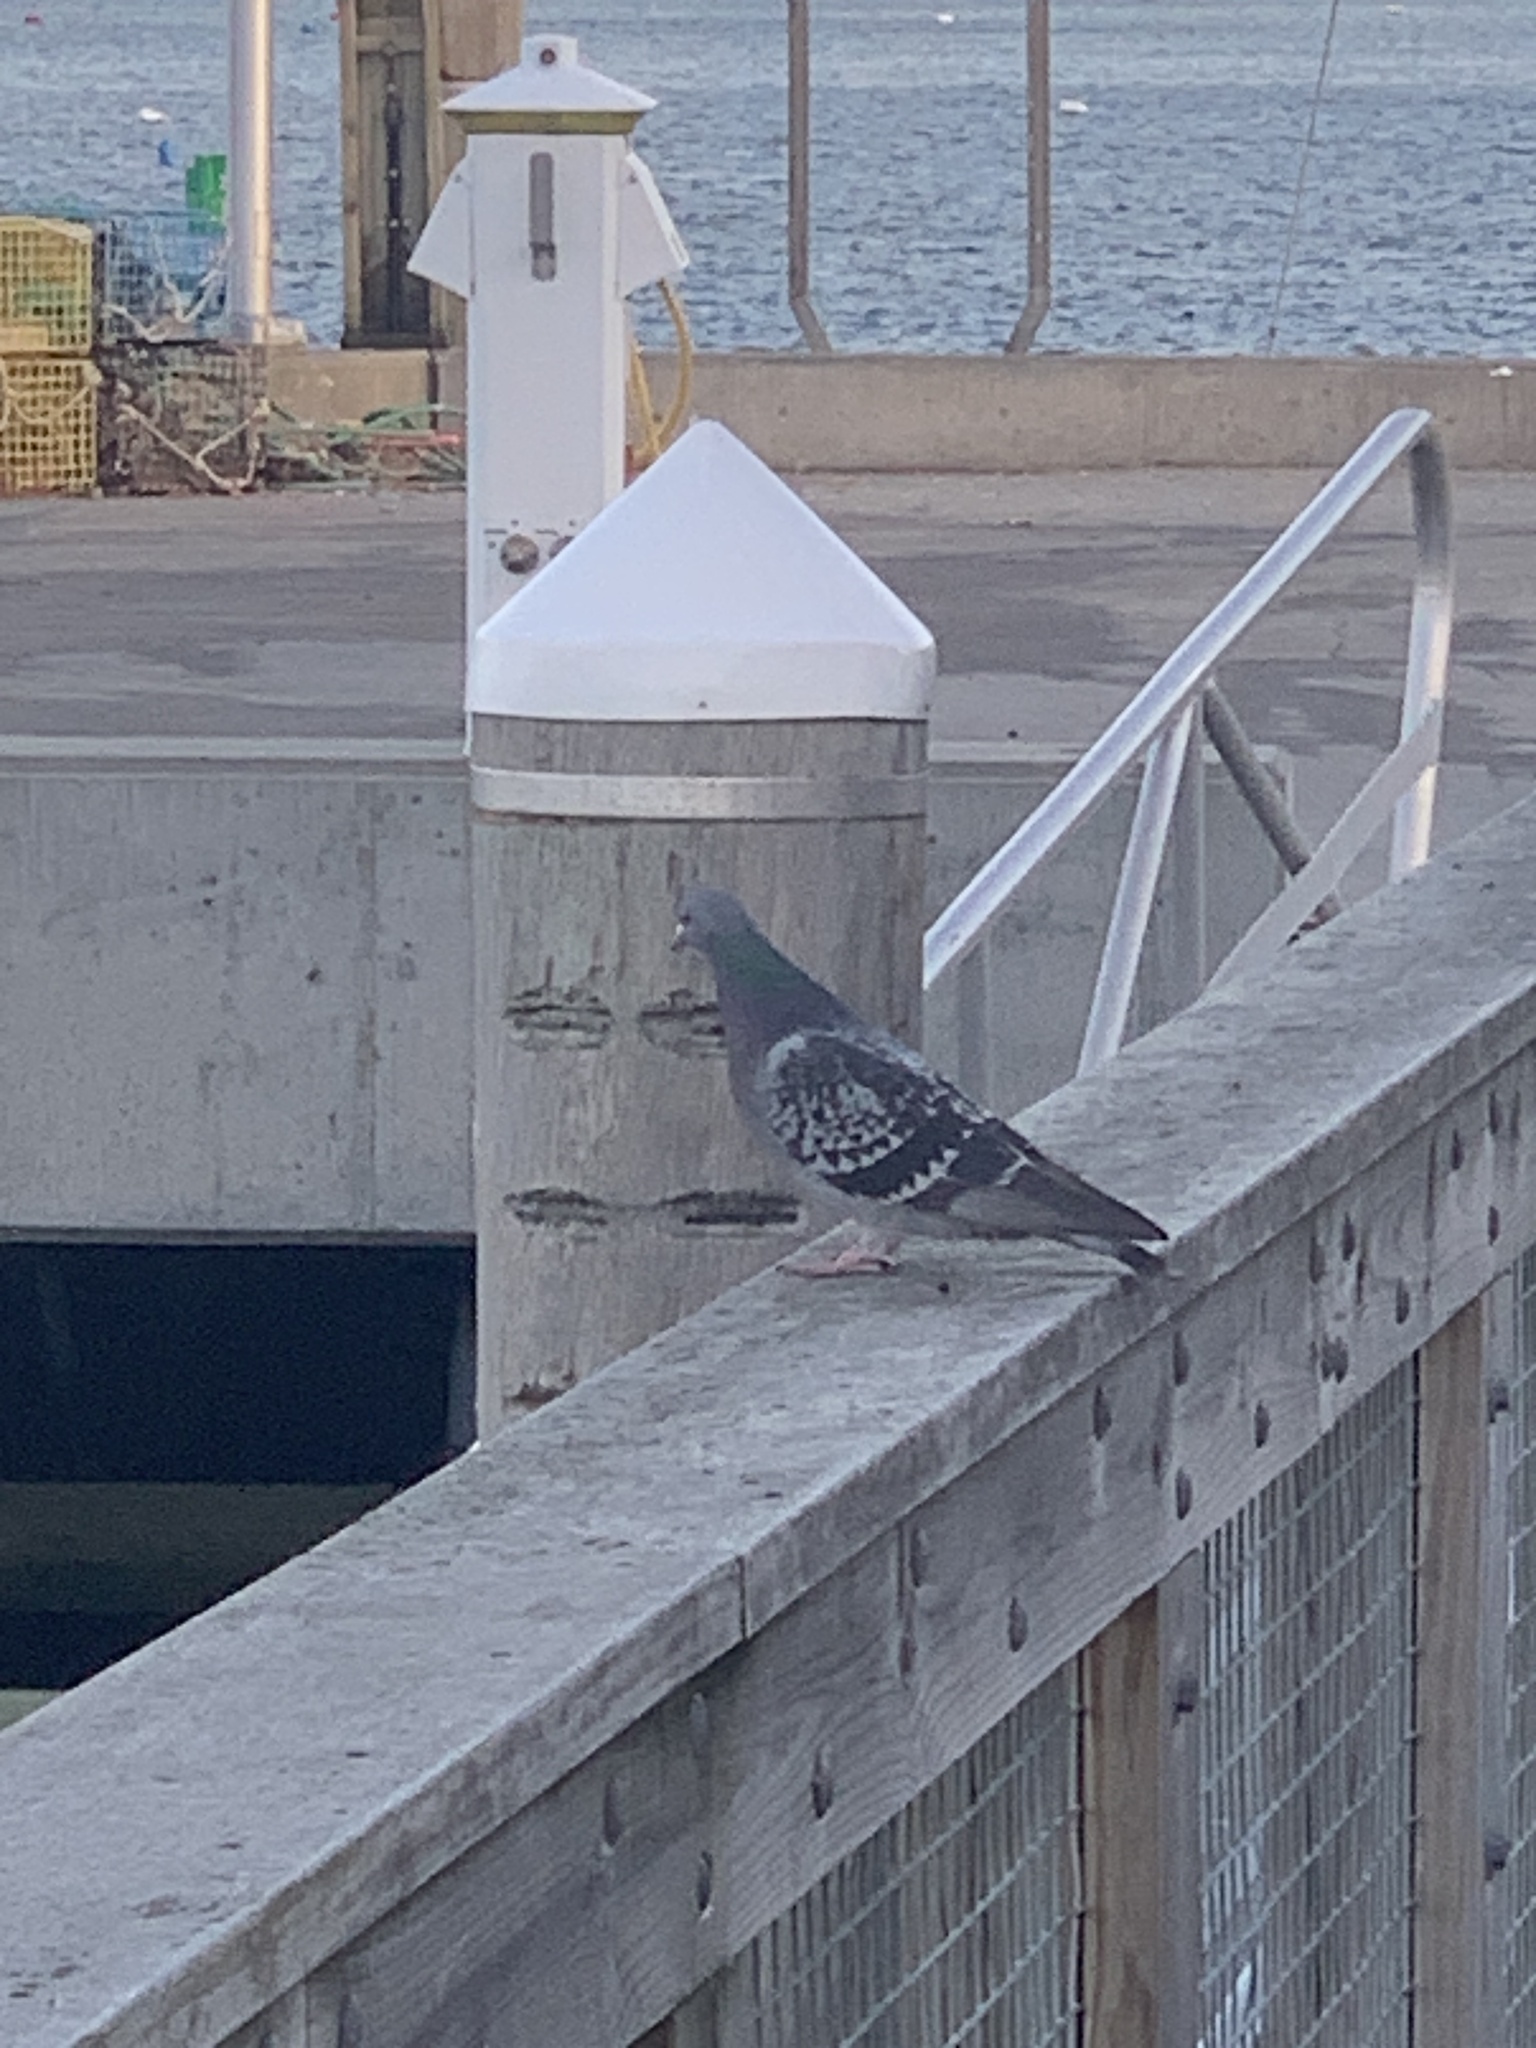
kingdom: Animalia
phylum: Chordata
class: Aves
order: Columbiformes
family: Columbidae
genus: Columba
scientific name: Columba livia
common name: Rock pigeon
